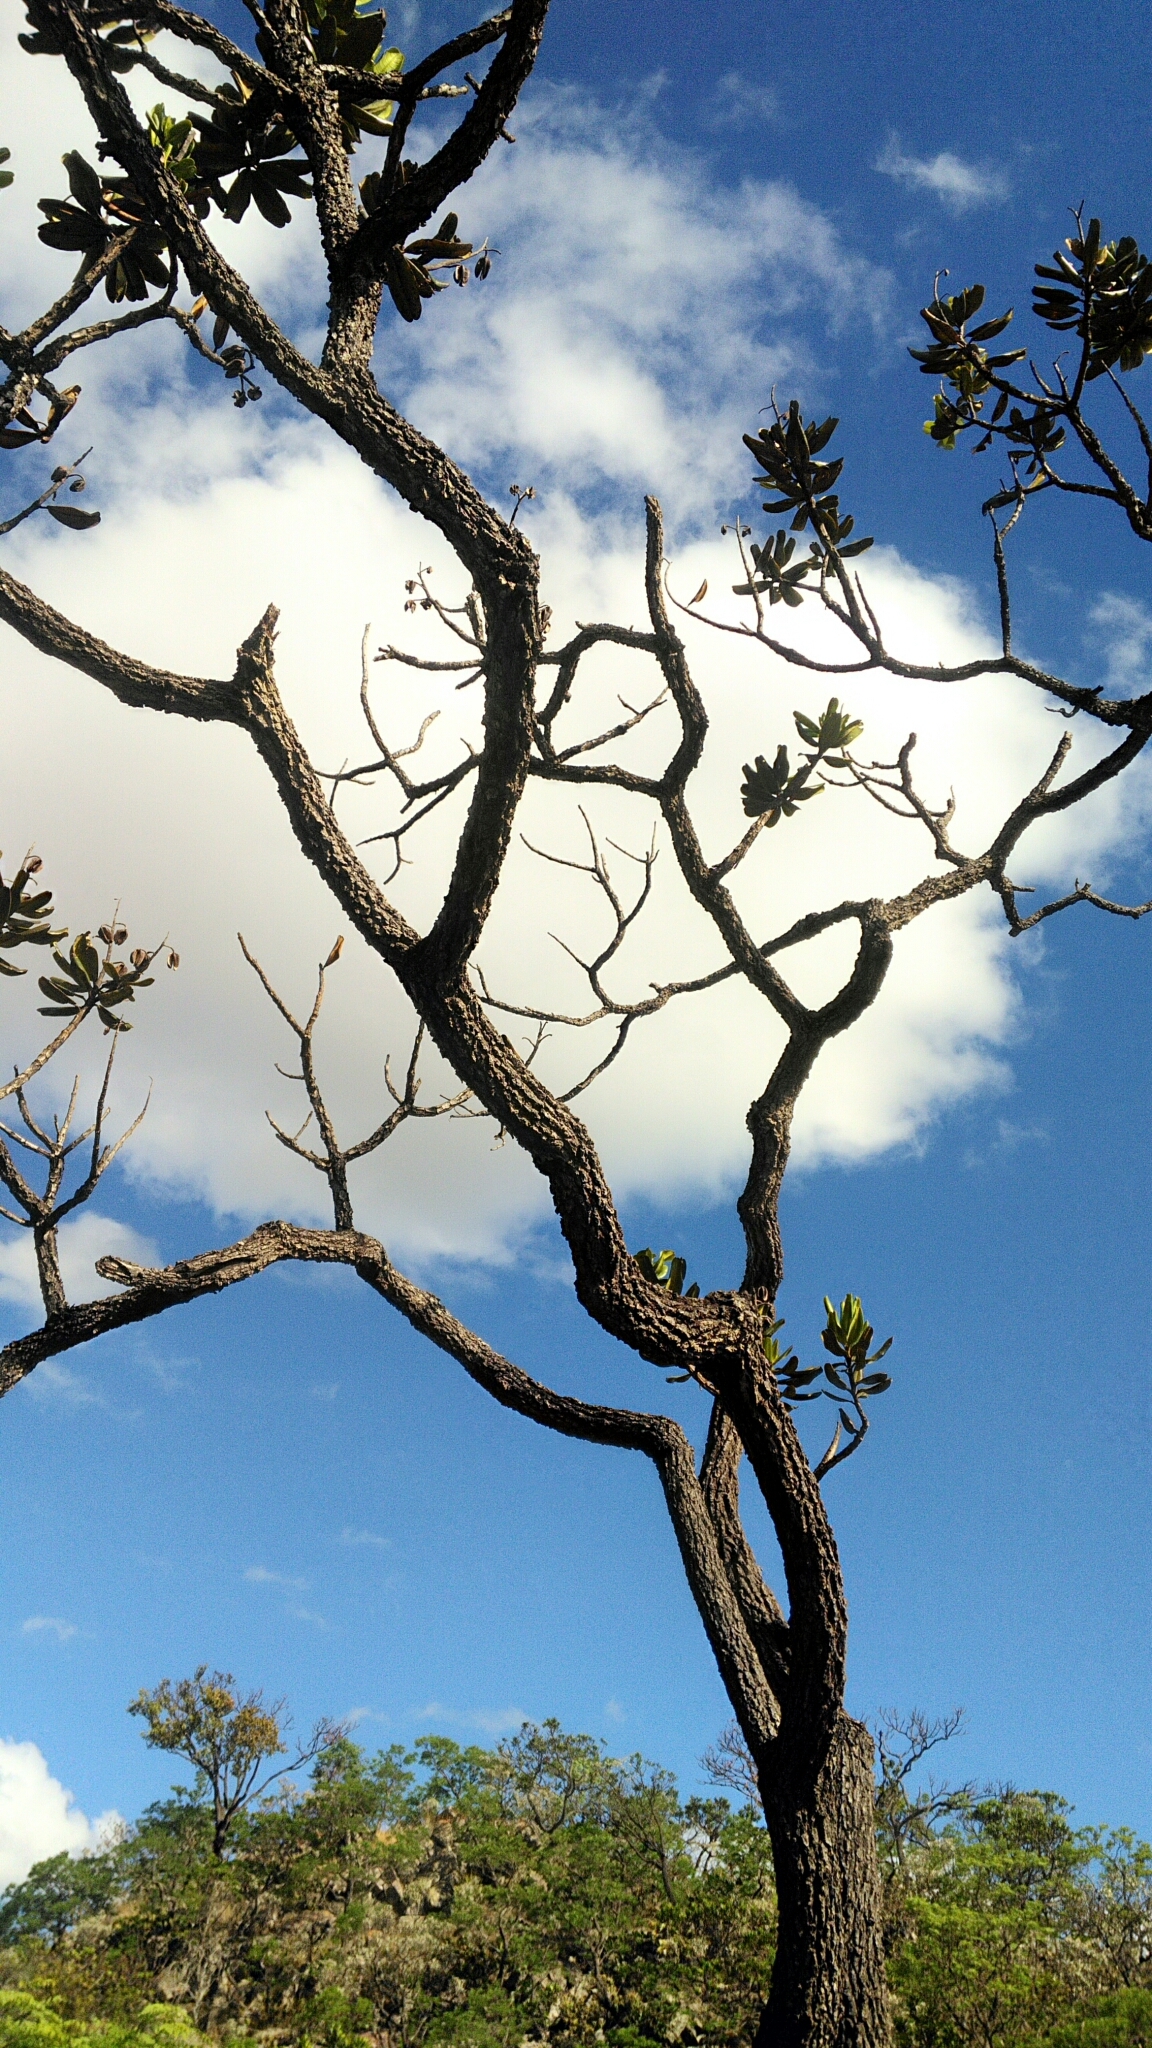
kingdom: Plantae
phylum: Tracheophyta
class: Magnoliopsida
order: Myrtales
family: Vochysiaceae
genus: Vochysia
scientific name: Vochysia thyrsoidea
